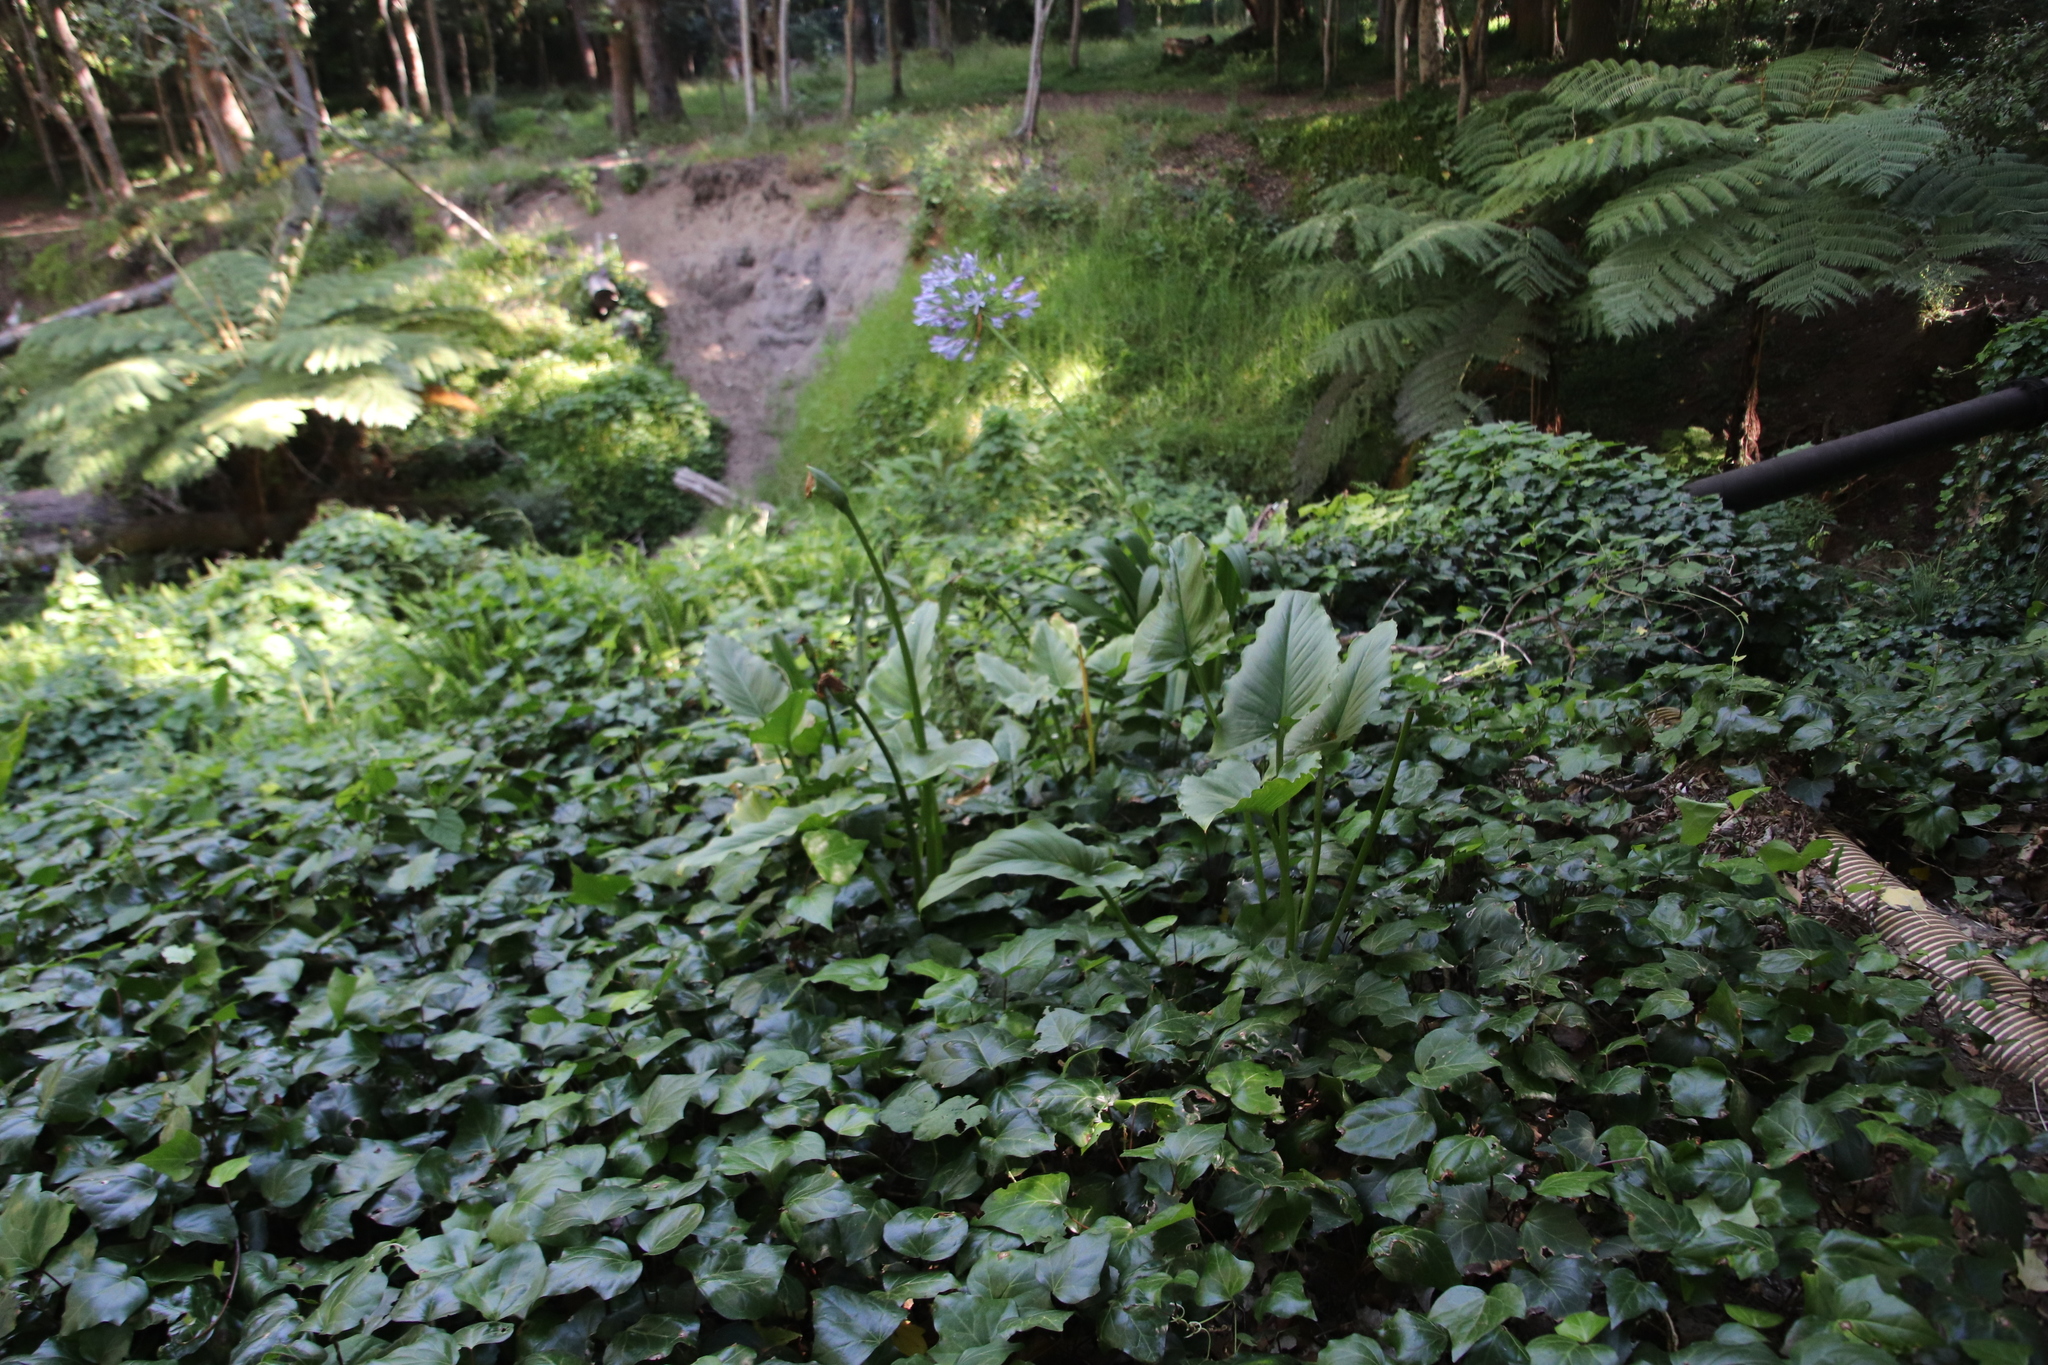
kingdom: Plantae
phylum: Tracheophyta
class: Liliopsida
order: Alismatales
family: Araceae
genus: Zantedeschia
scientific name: Zantedeschia aethiopica
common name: Altar-lily
